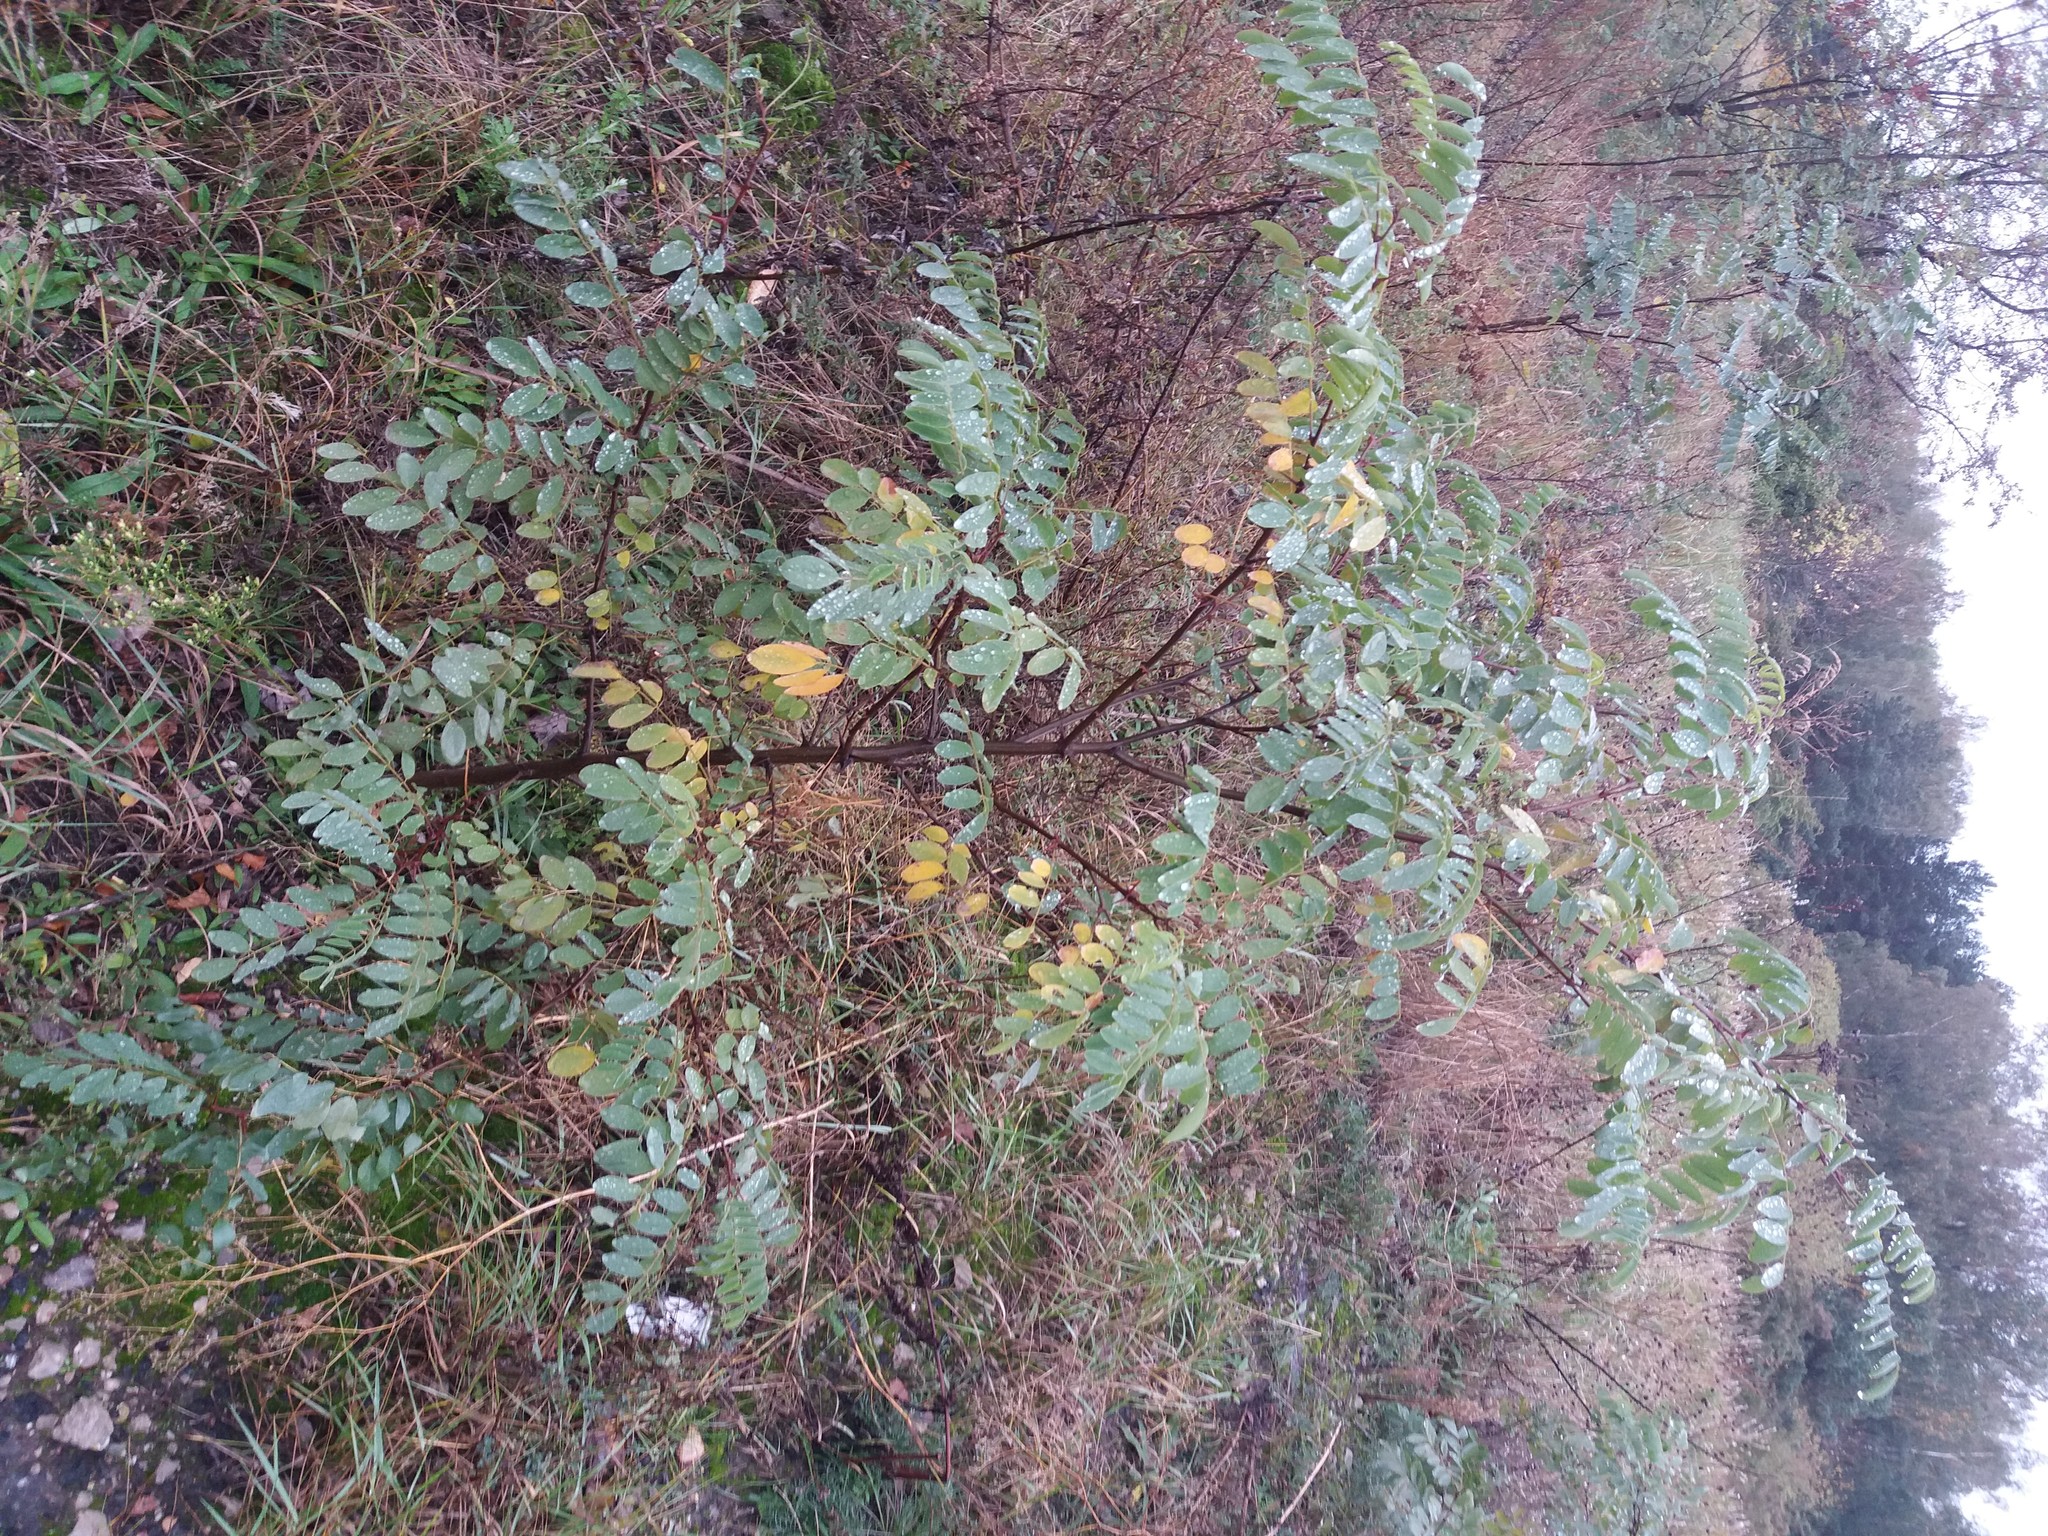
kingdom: Plantae
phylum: Tracheophyta
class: Magnoliopsida
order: Fabales
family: Fabaceae
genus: Robinia
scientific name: Robinia pseudoacacia
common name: Black locust
